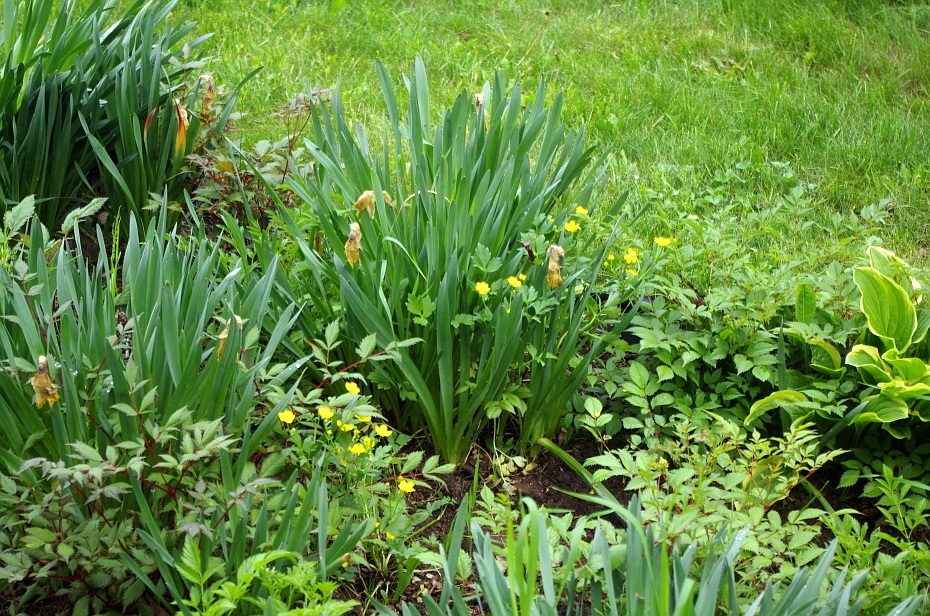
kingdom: Plantae
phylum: Tracheophyta
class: Magnoliopsida
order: Ranunculales
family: Ranunculaceae
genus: Ranunculus
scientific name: Ranunculus repens
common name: Creeping buttercup
